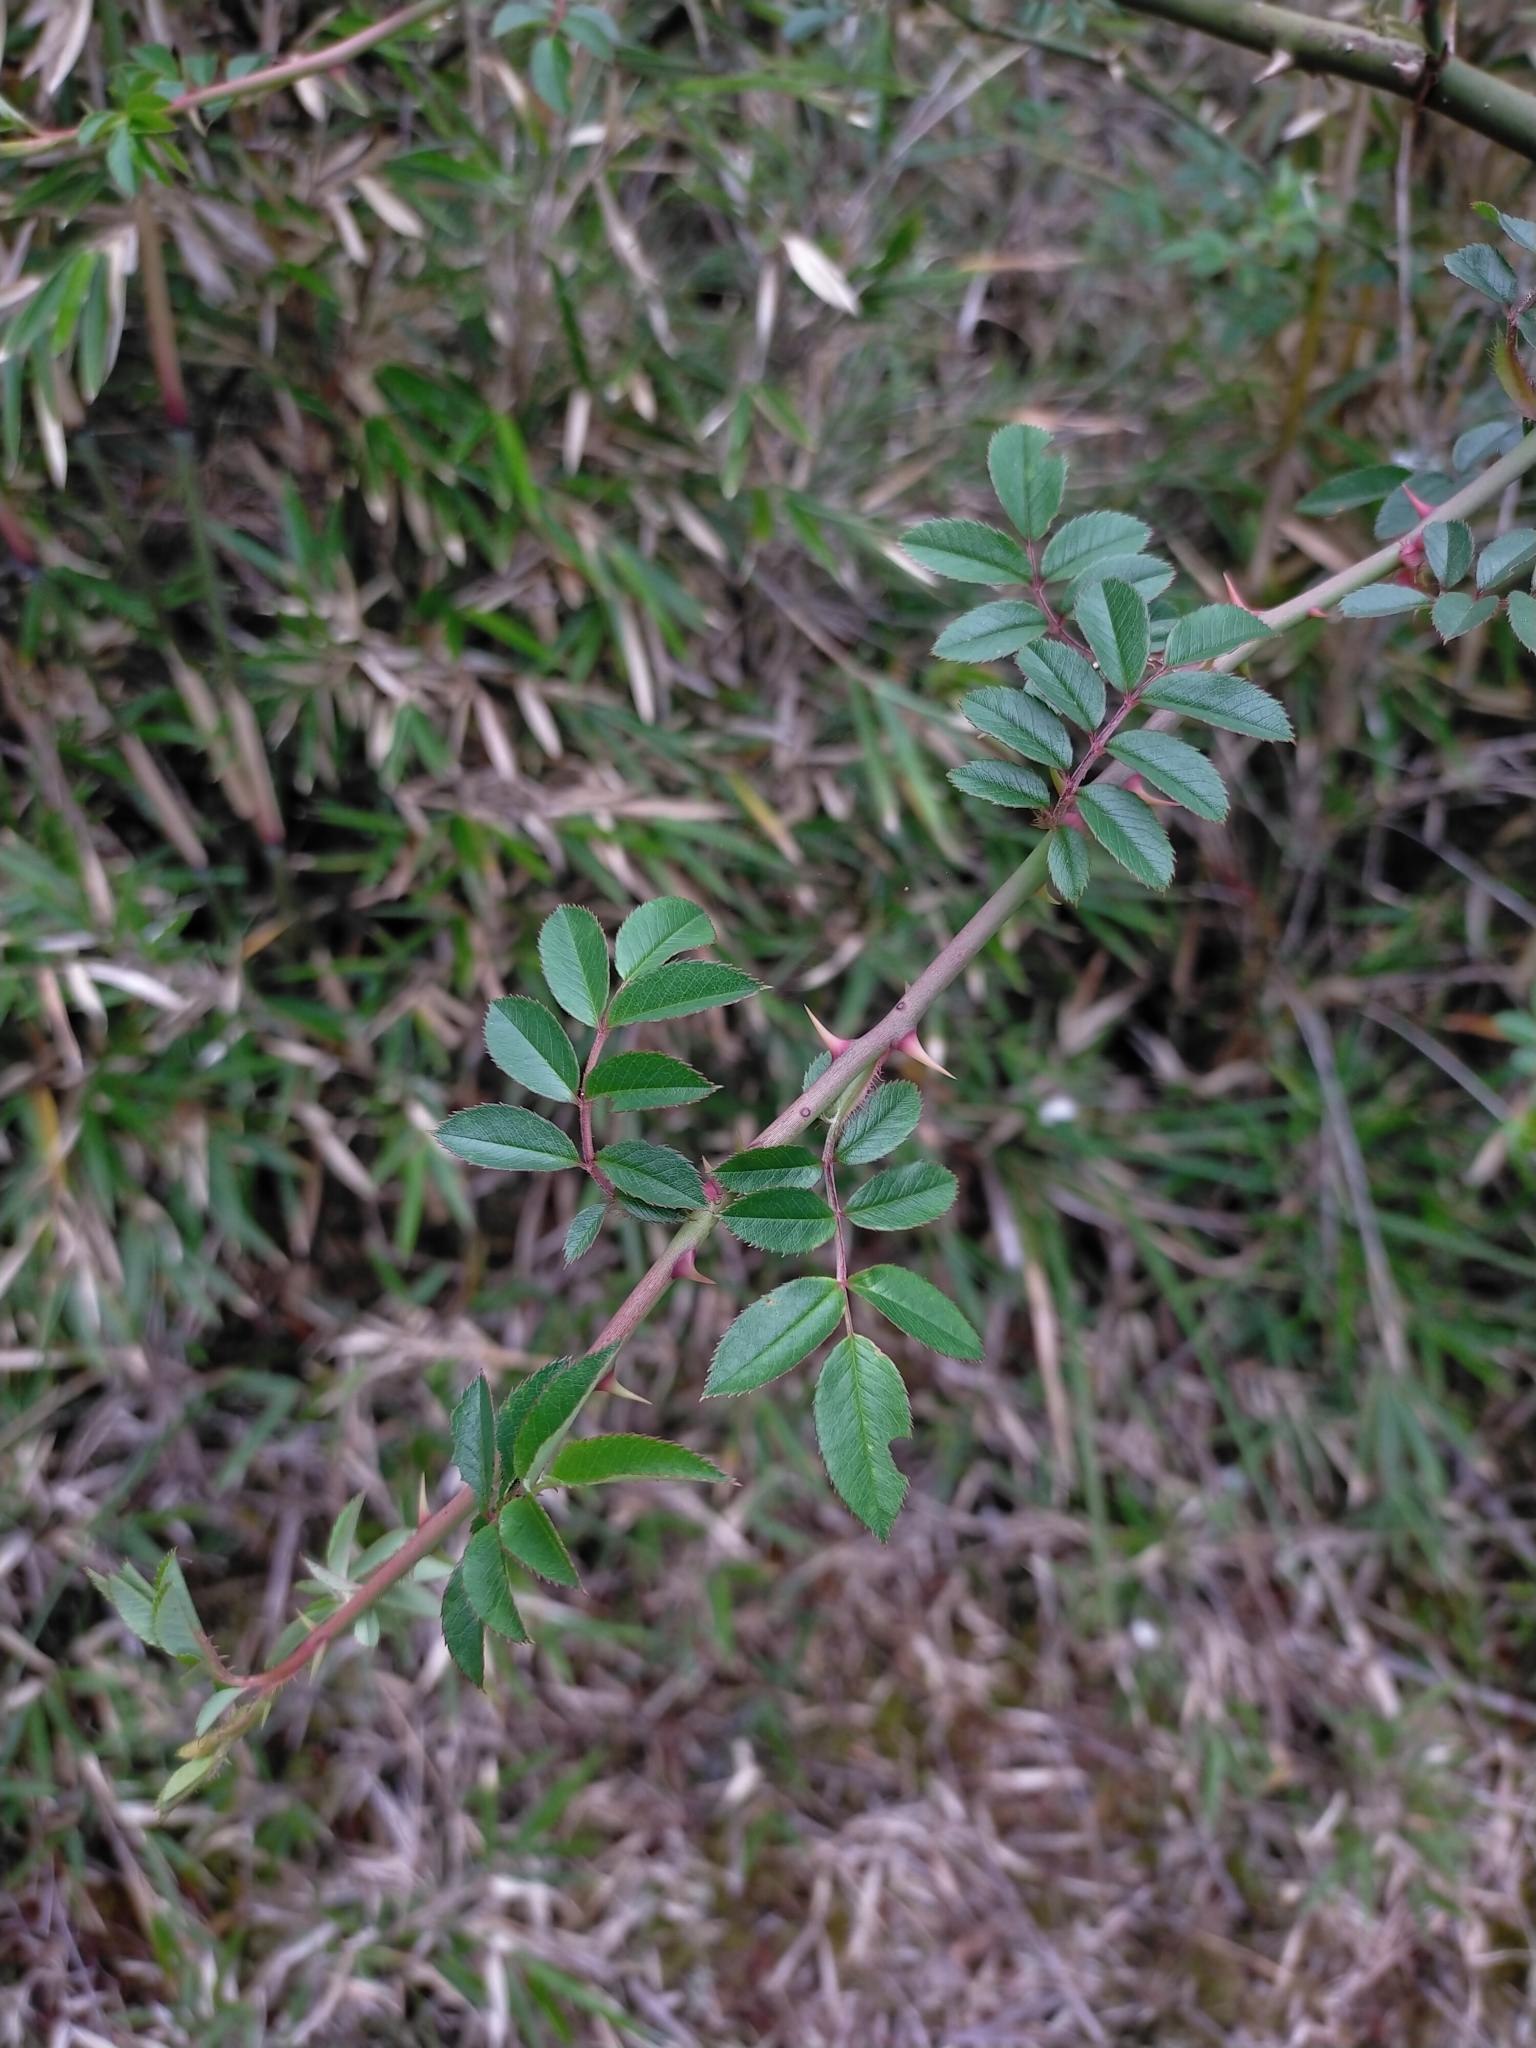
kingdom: Plantae
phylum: Tracheophyta
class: Magnoliopsida
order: Rosales
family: Rosaceae
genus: Rosa
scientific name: Rosa transmorrisonensis
